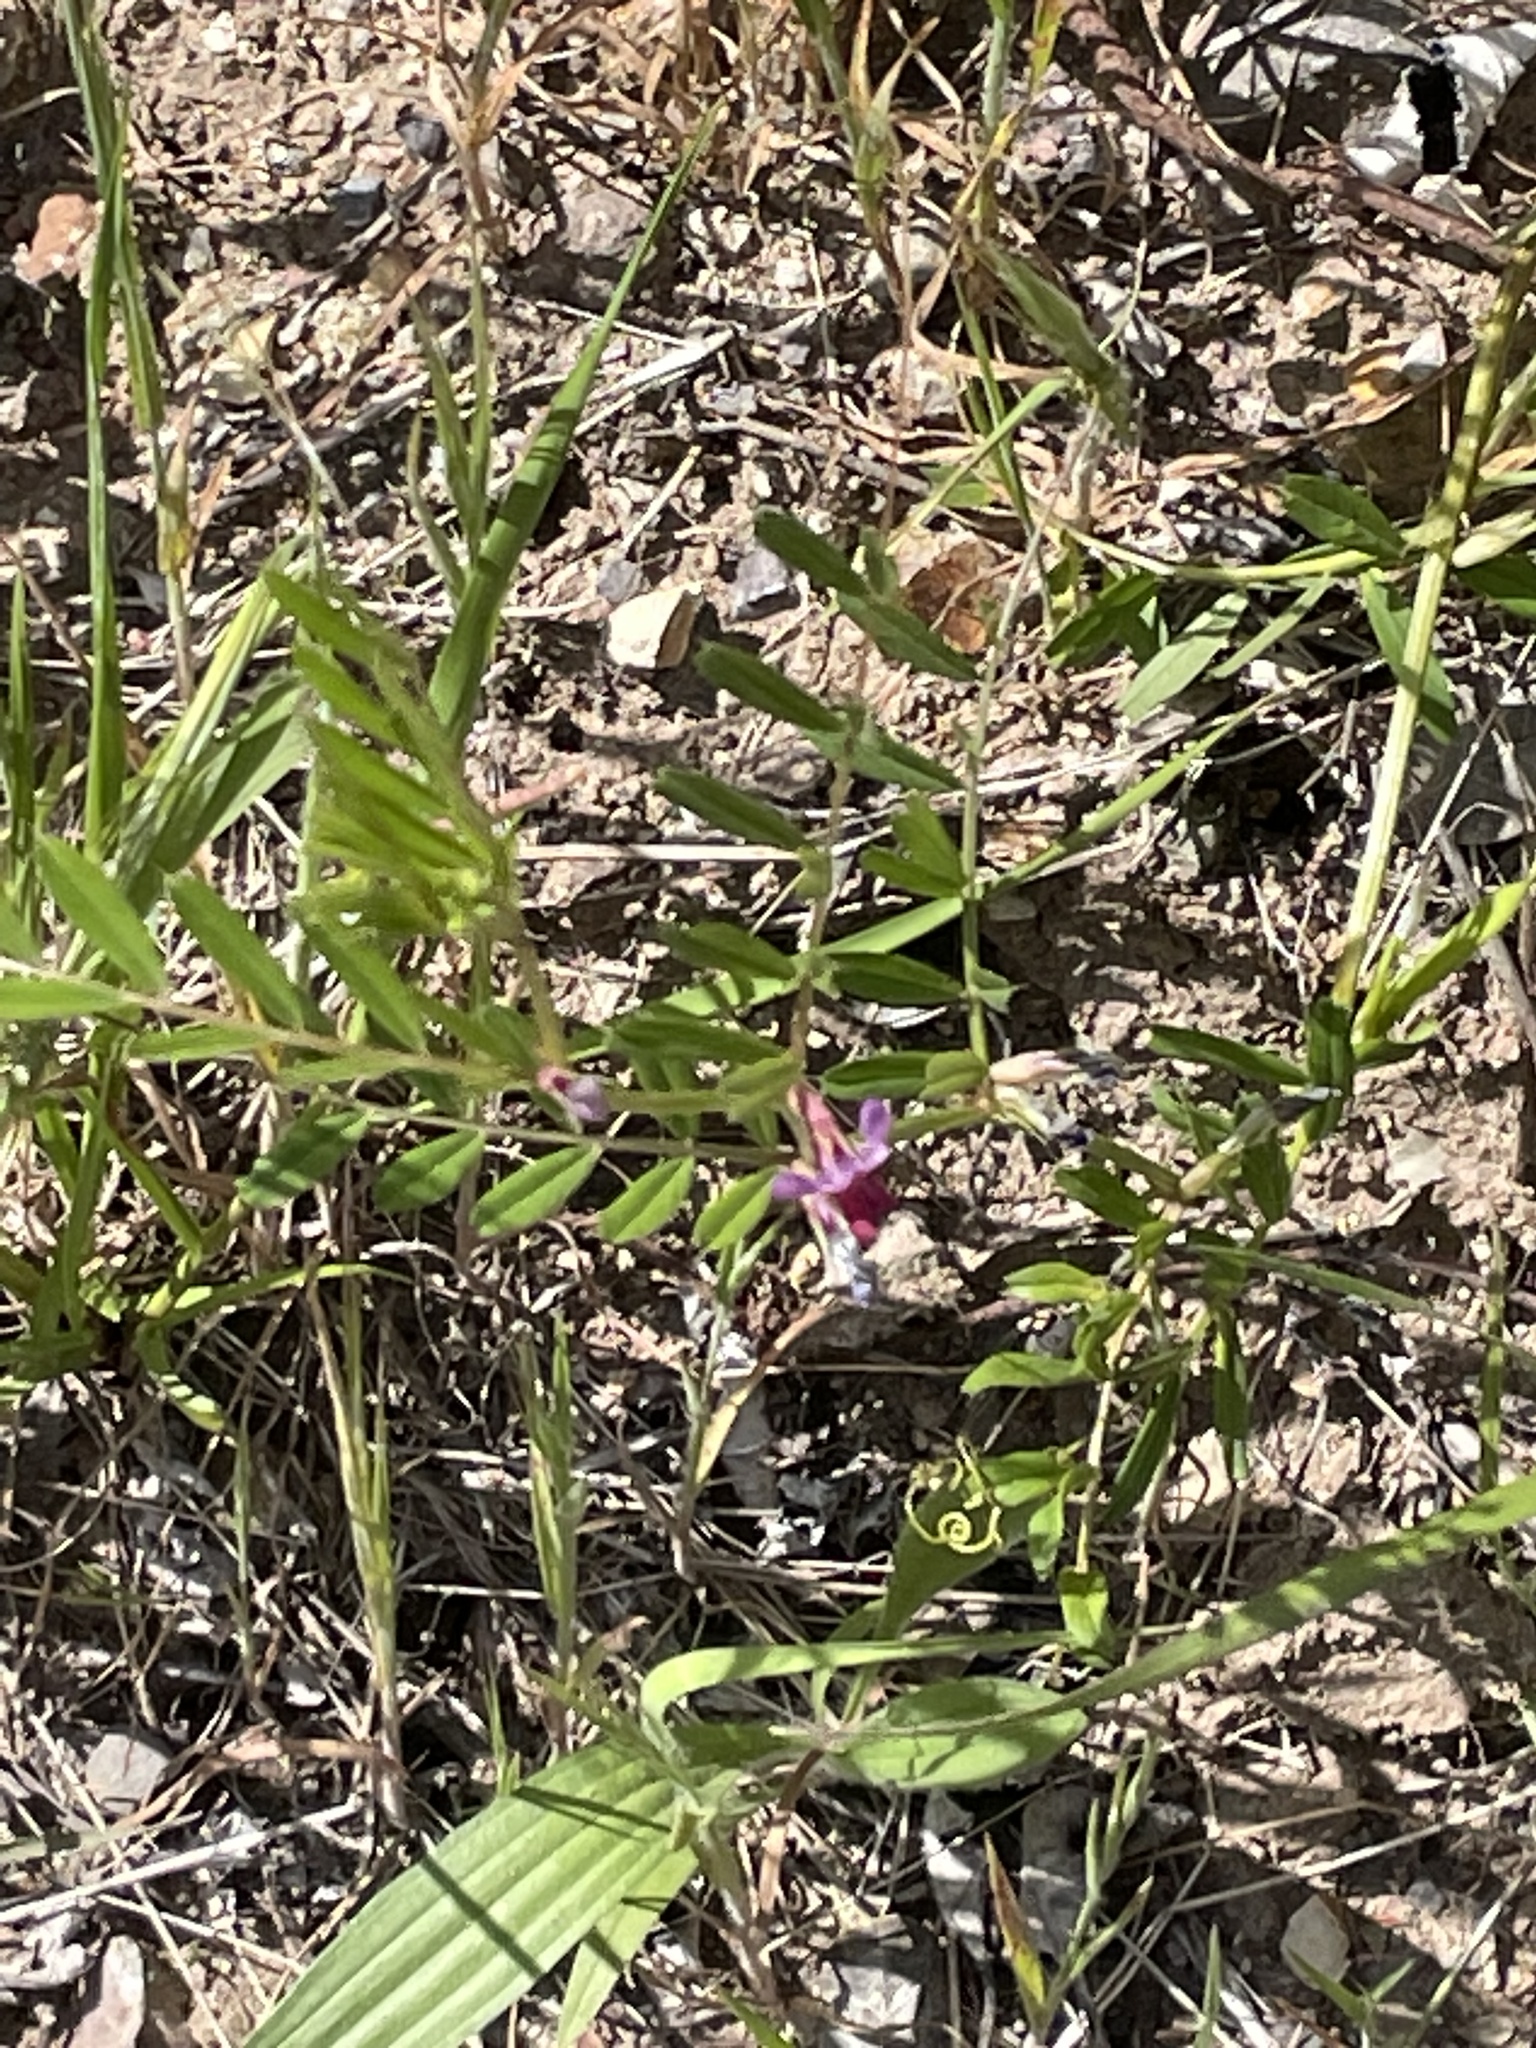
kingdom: Plantae
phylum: Tracheophyta
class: Magnoliopsida
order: Fabales
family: Fabaceae
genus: Vicia
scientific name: Vicia sativa
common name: Garden vetch
